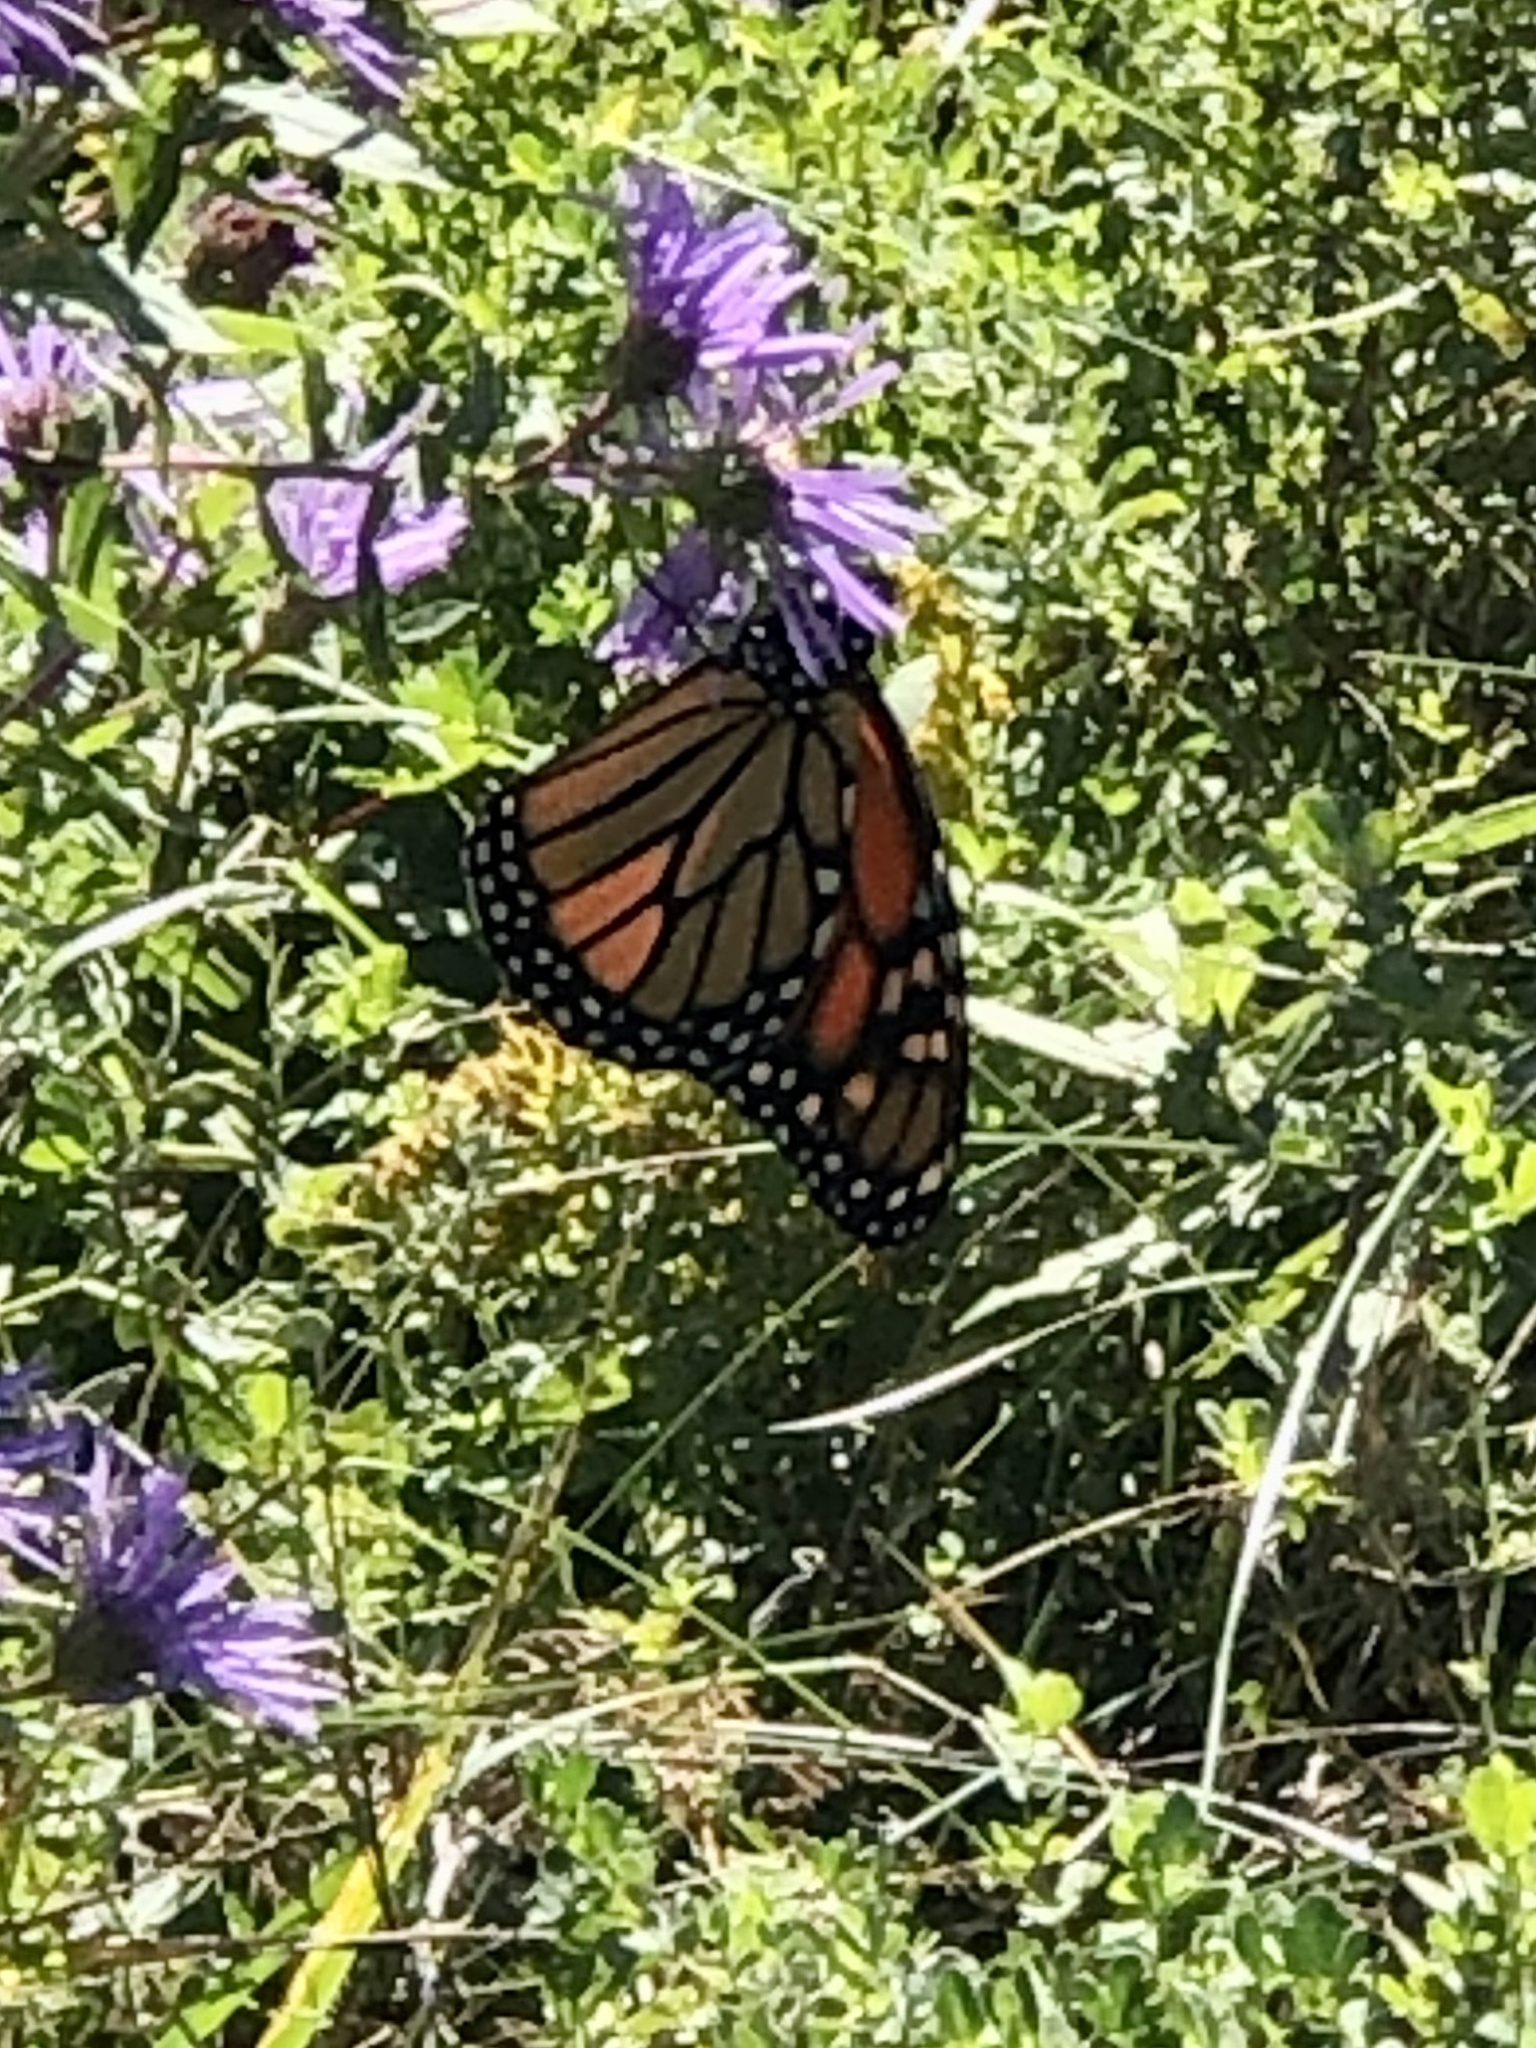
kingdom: Animalia
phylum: Arthropoda
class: Insecta
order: Lepidoptera
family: Nymphalidae
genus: Danaus
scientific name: Danaus plexippus
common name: Monarch
